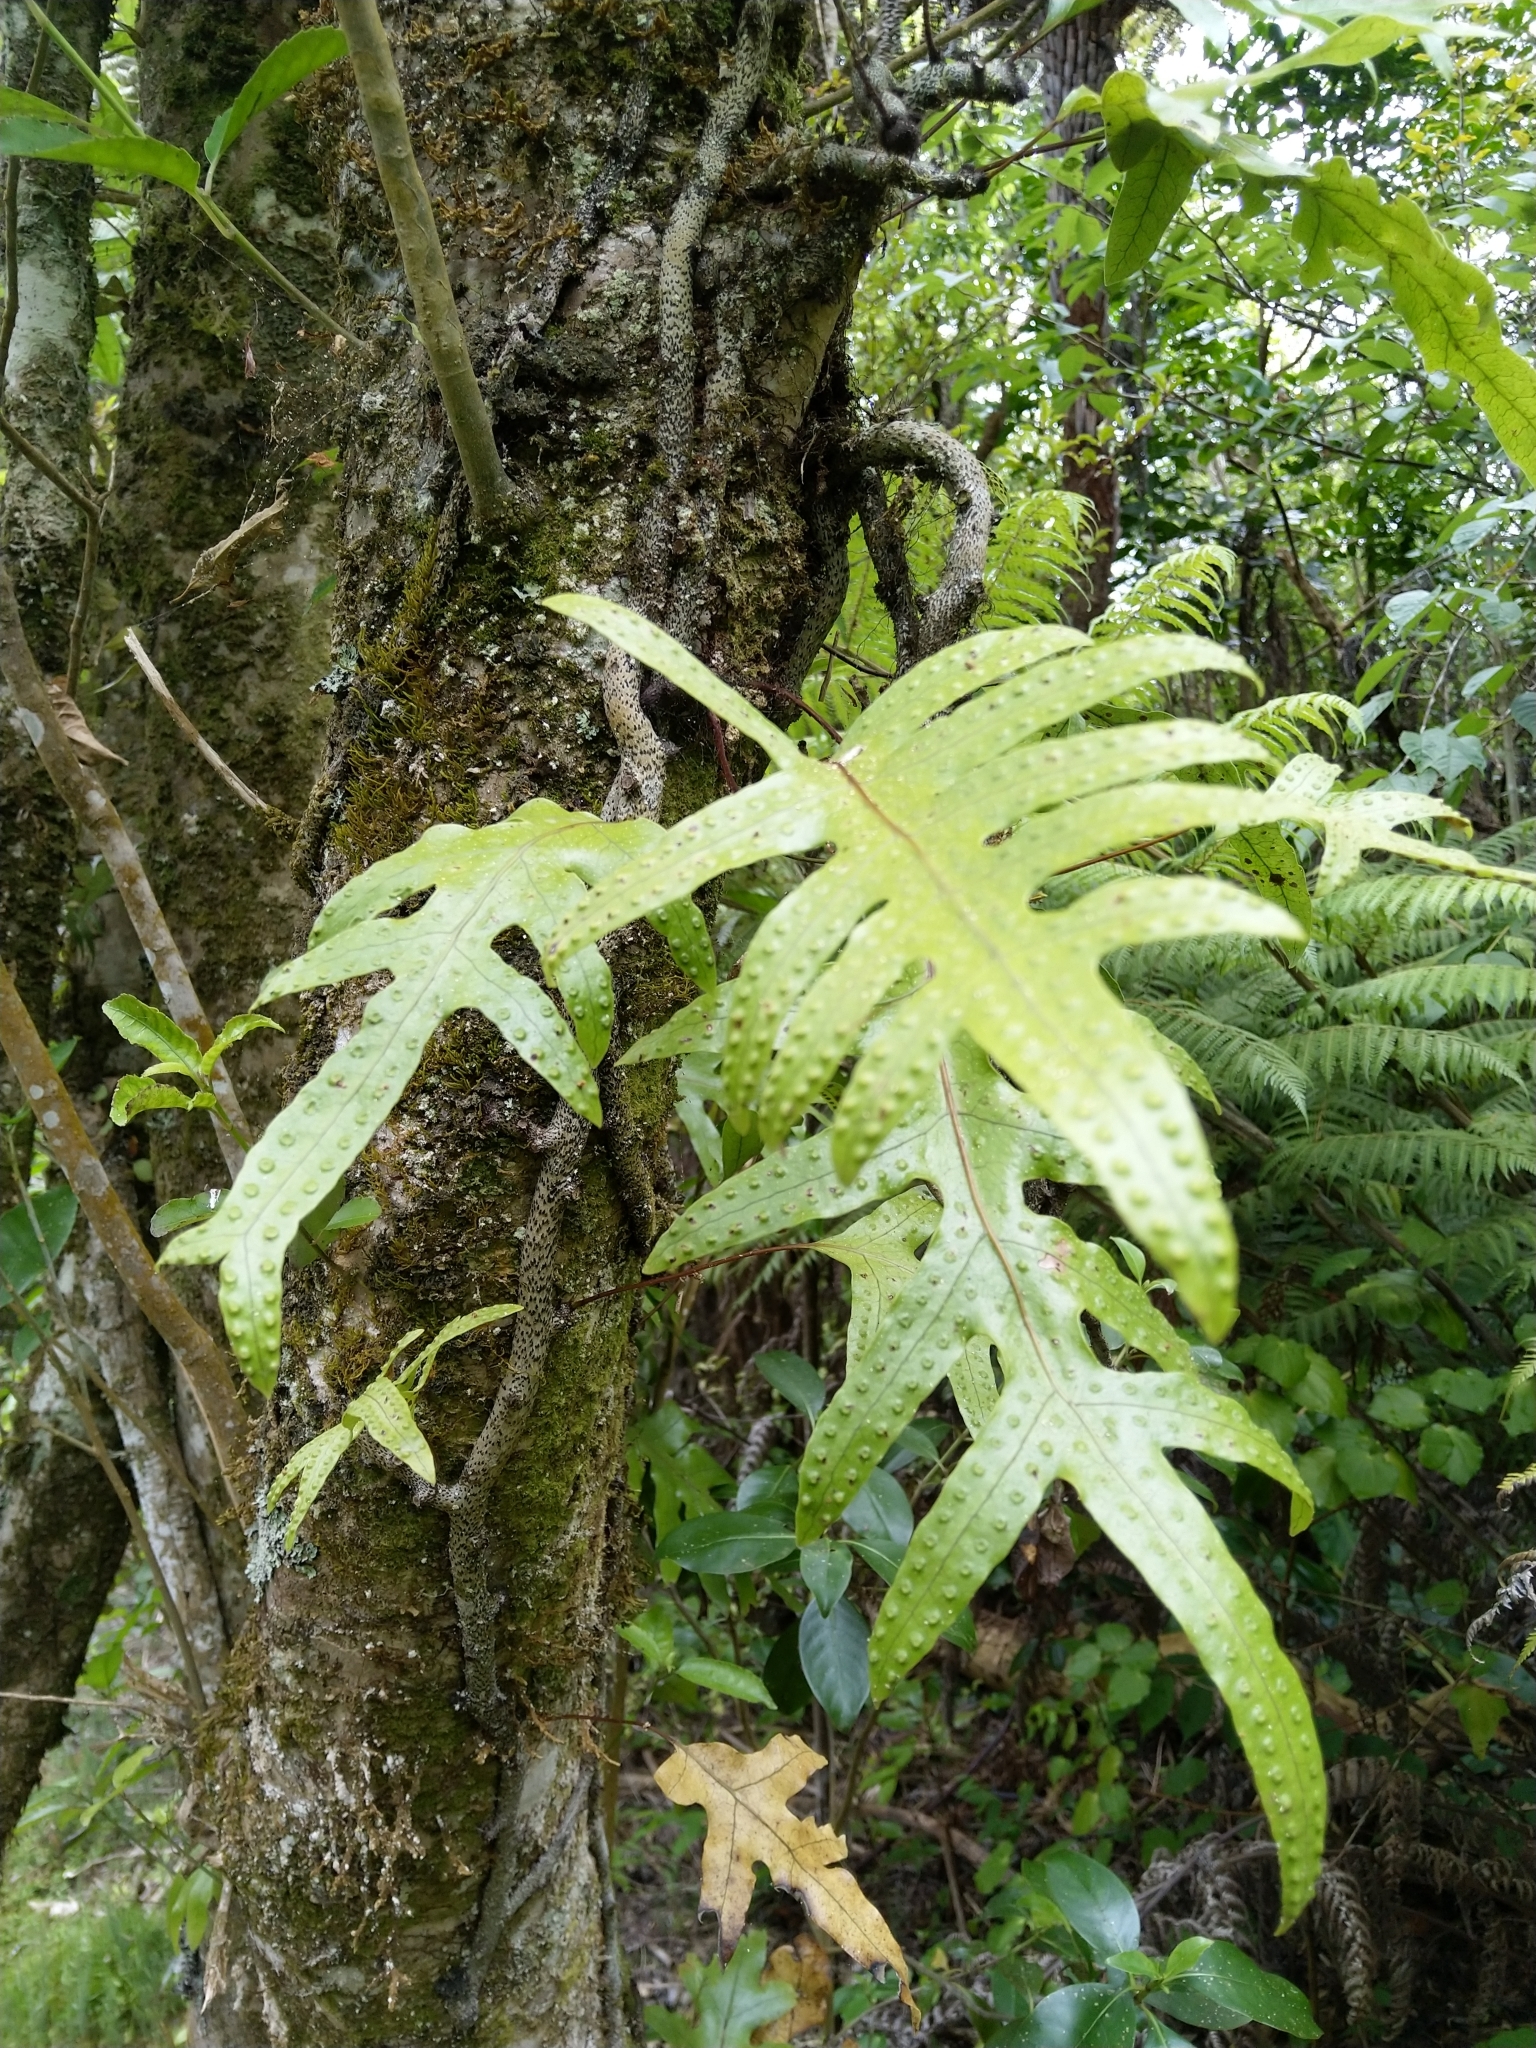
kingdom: Plantae
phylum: Tracheophyta
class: Polypodiopsida
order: Polypodiales
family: Polypodiaceae
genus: Lecanopteris
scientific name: Lecanopteris pustulata
